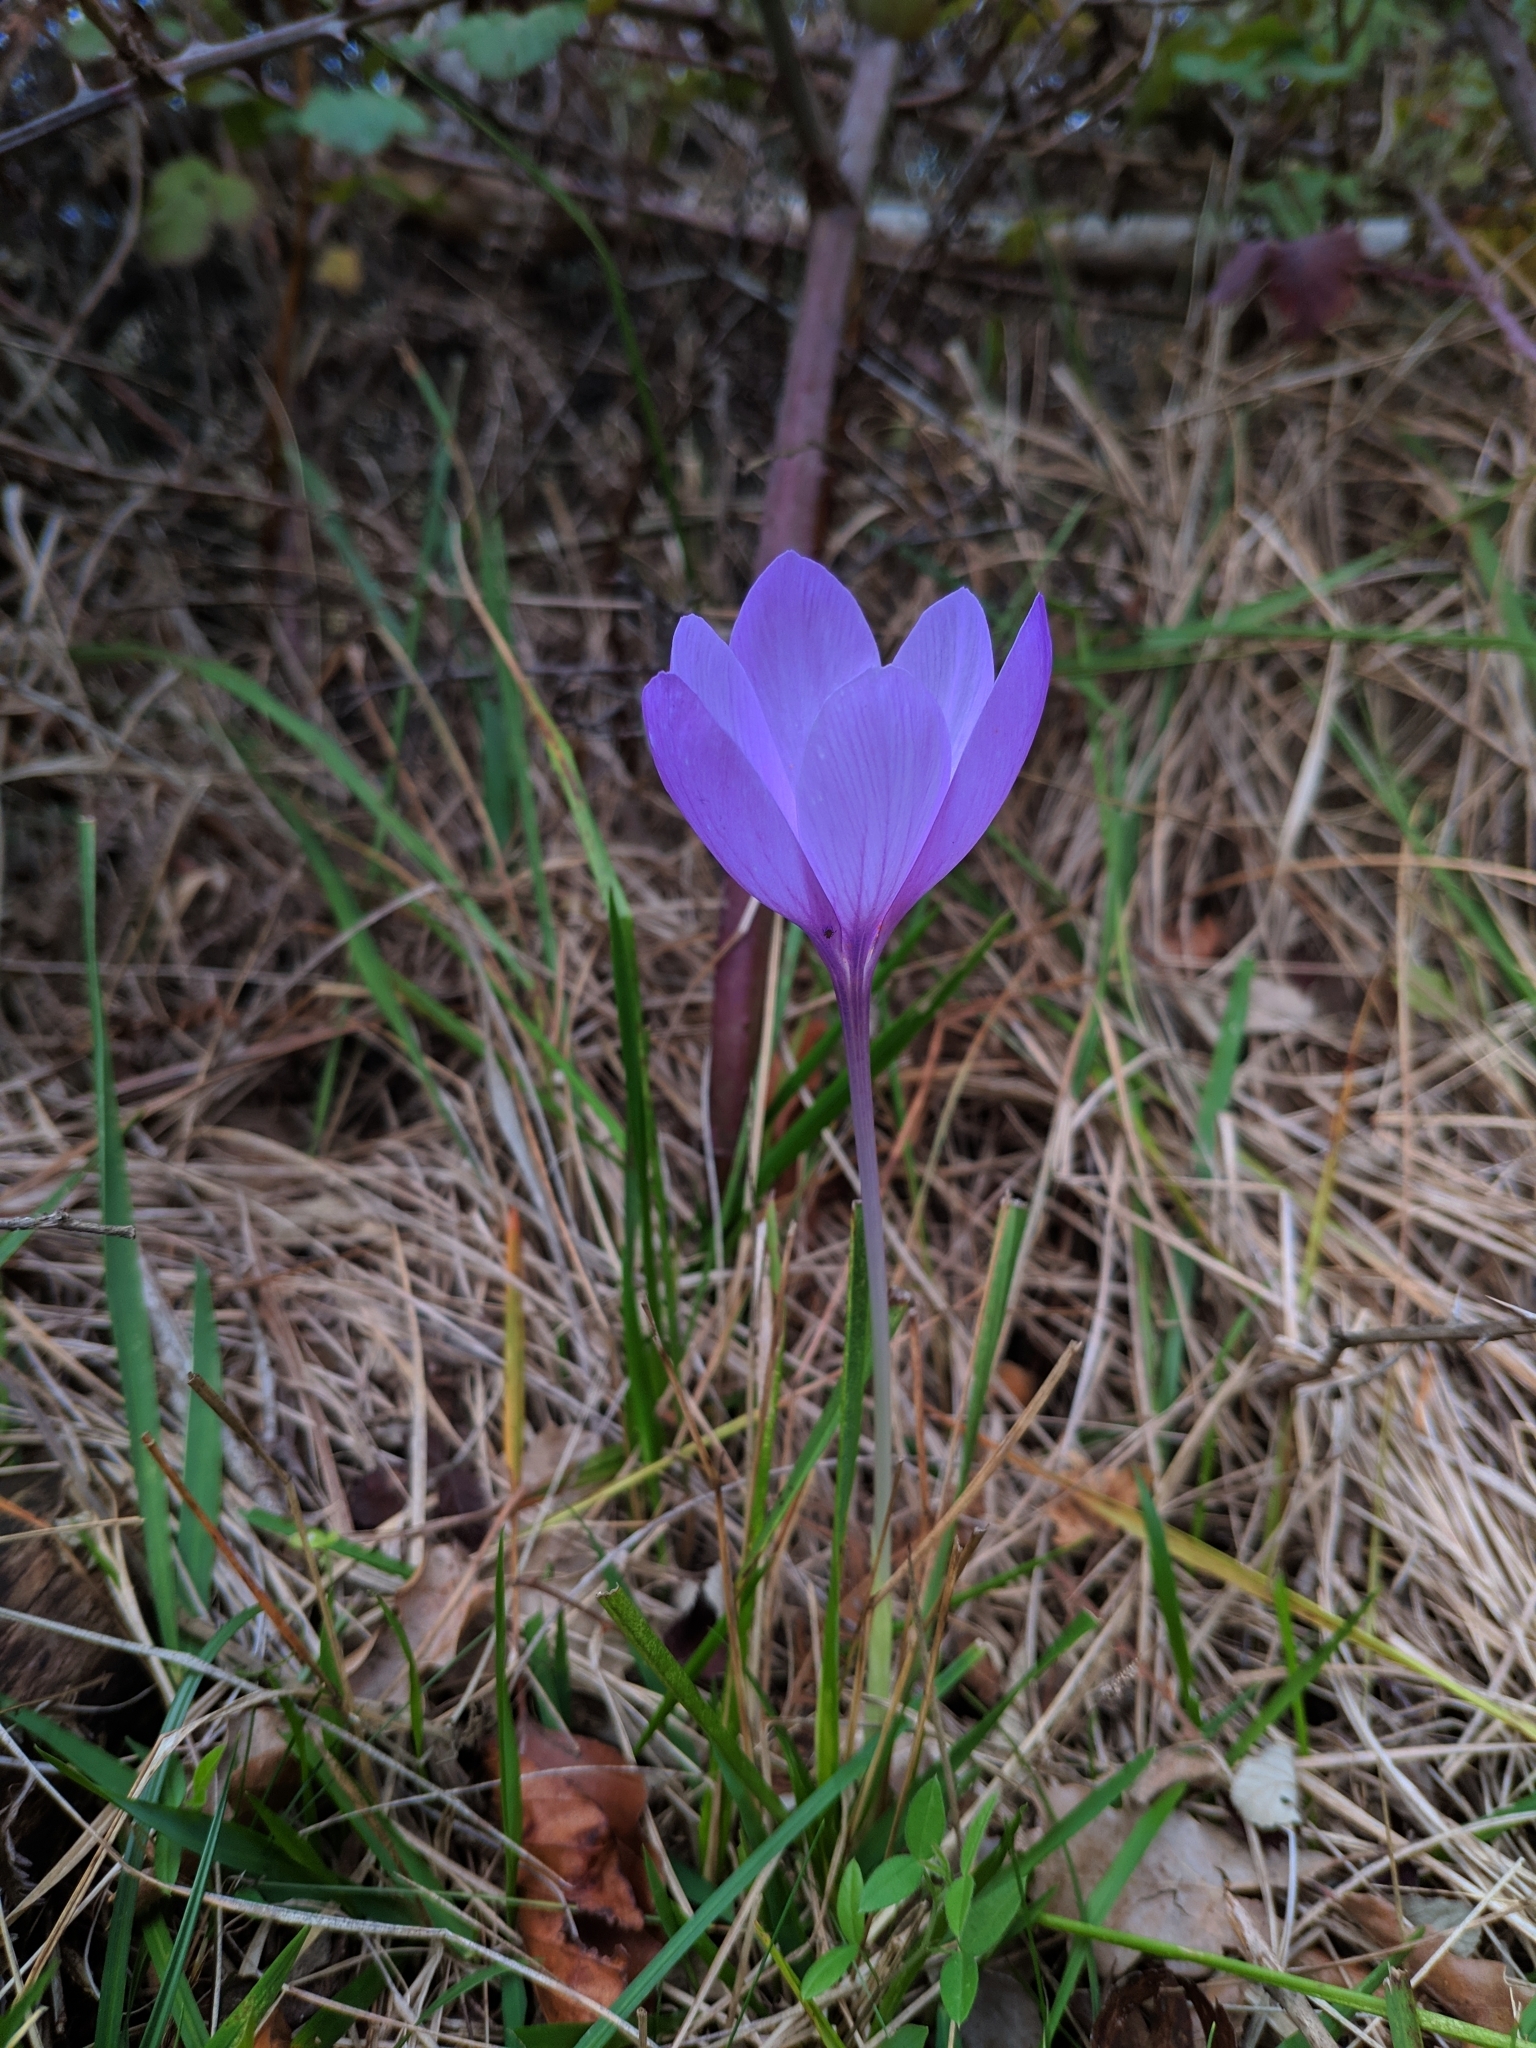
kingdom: Plantae
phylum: Tracheophyta
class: Liliopsida
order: Asparagales
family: Iridaceae
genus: Crocus
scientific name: Crocus nudiflorus
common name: Autumn crocus
